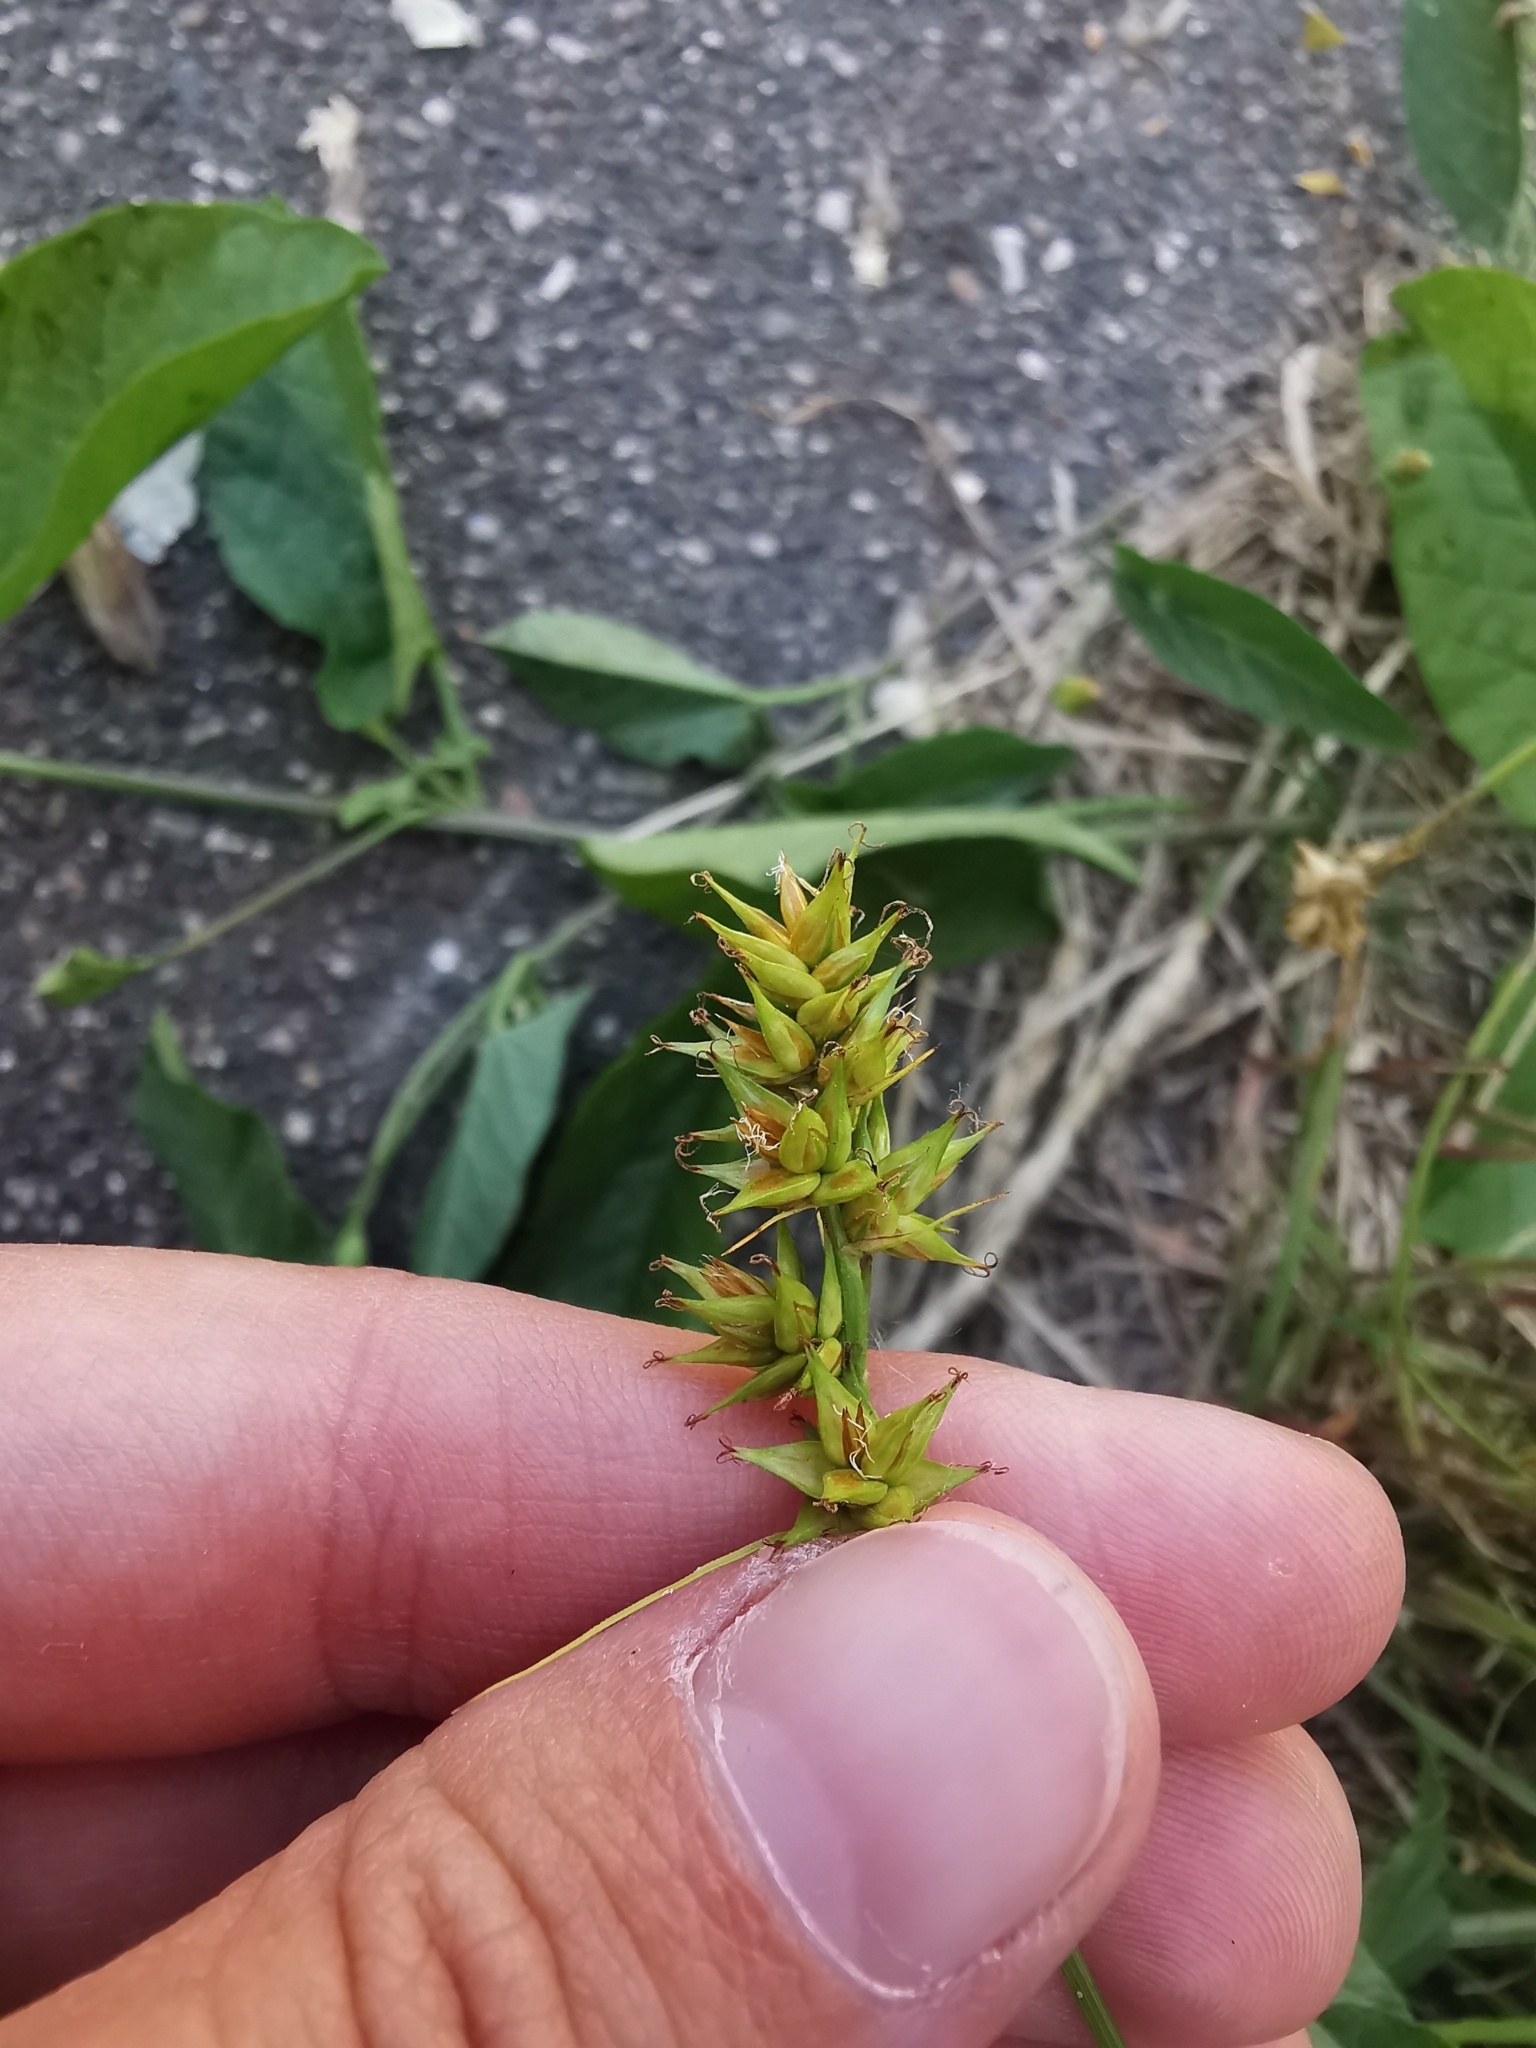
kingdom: Plantae
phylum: Tracheophyta
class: Liliopsida
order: Poales
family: Cyperaceae
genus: Carex
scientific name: Carex spicata
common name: Spiked sedge
